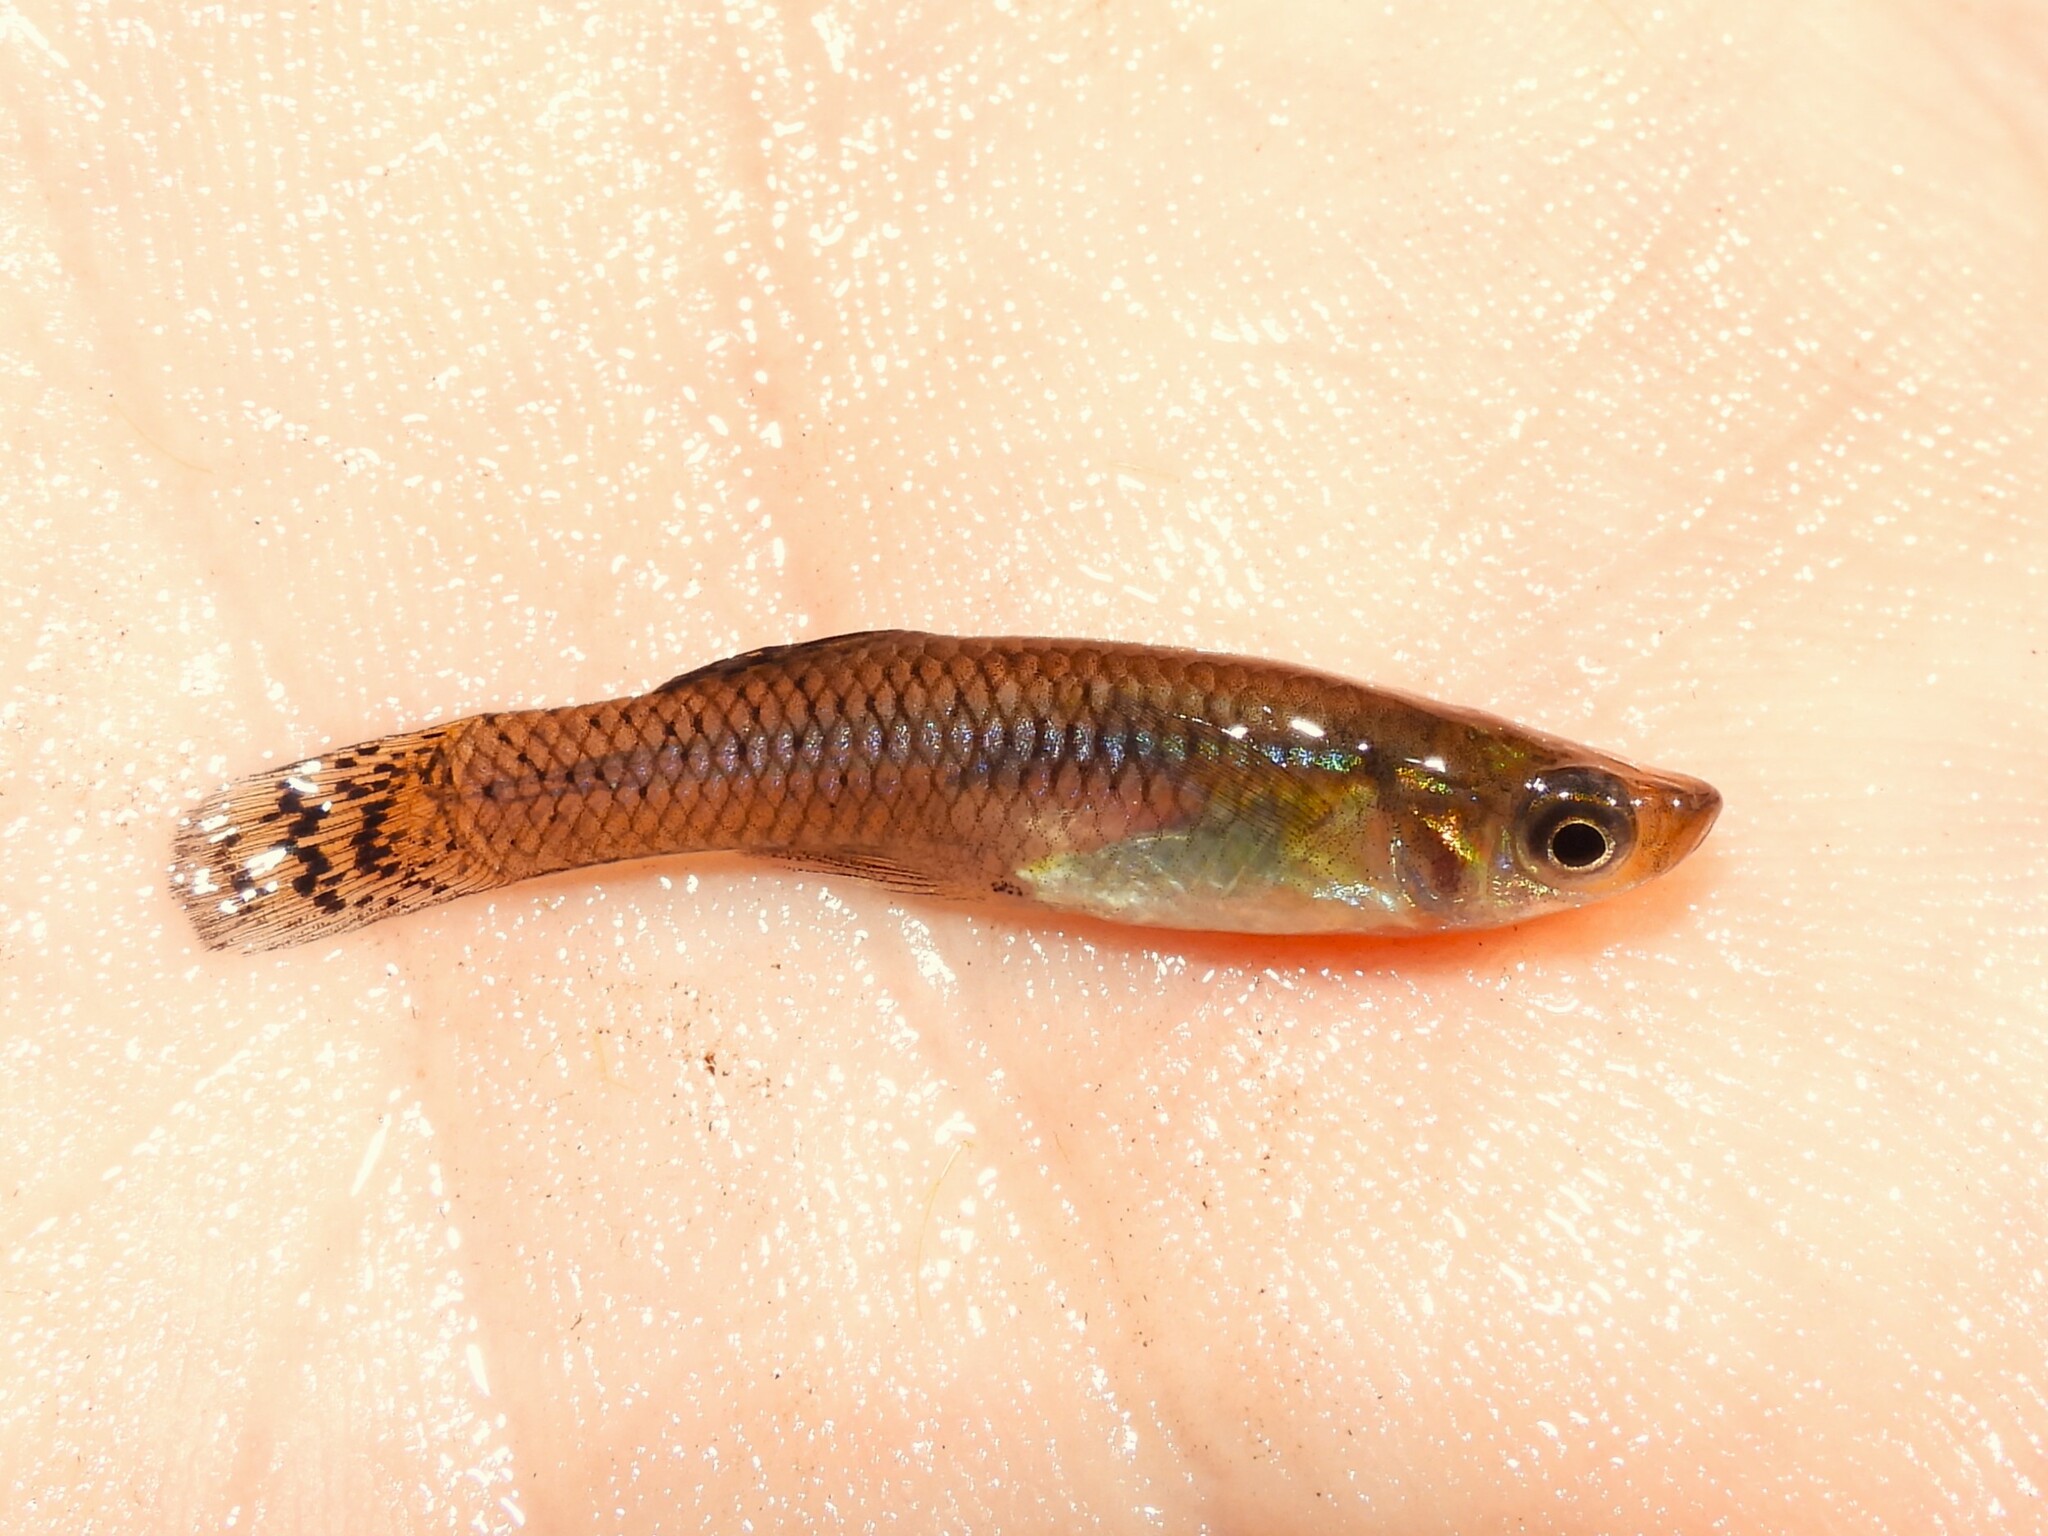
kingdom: Animalia
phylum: Chordata
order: Cyprinodontiformes
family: Poeciliidae
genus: Gambusia
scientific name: Gambusia holbrooki
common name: Eastern mosquitofish
